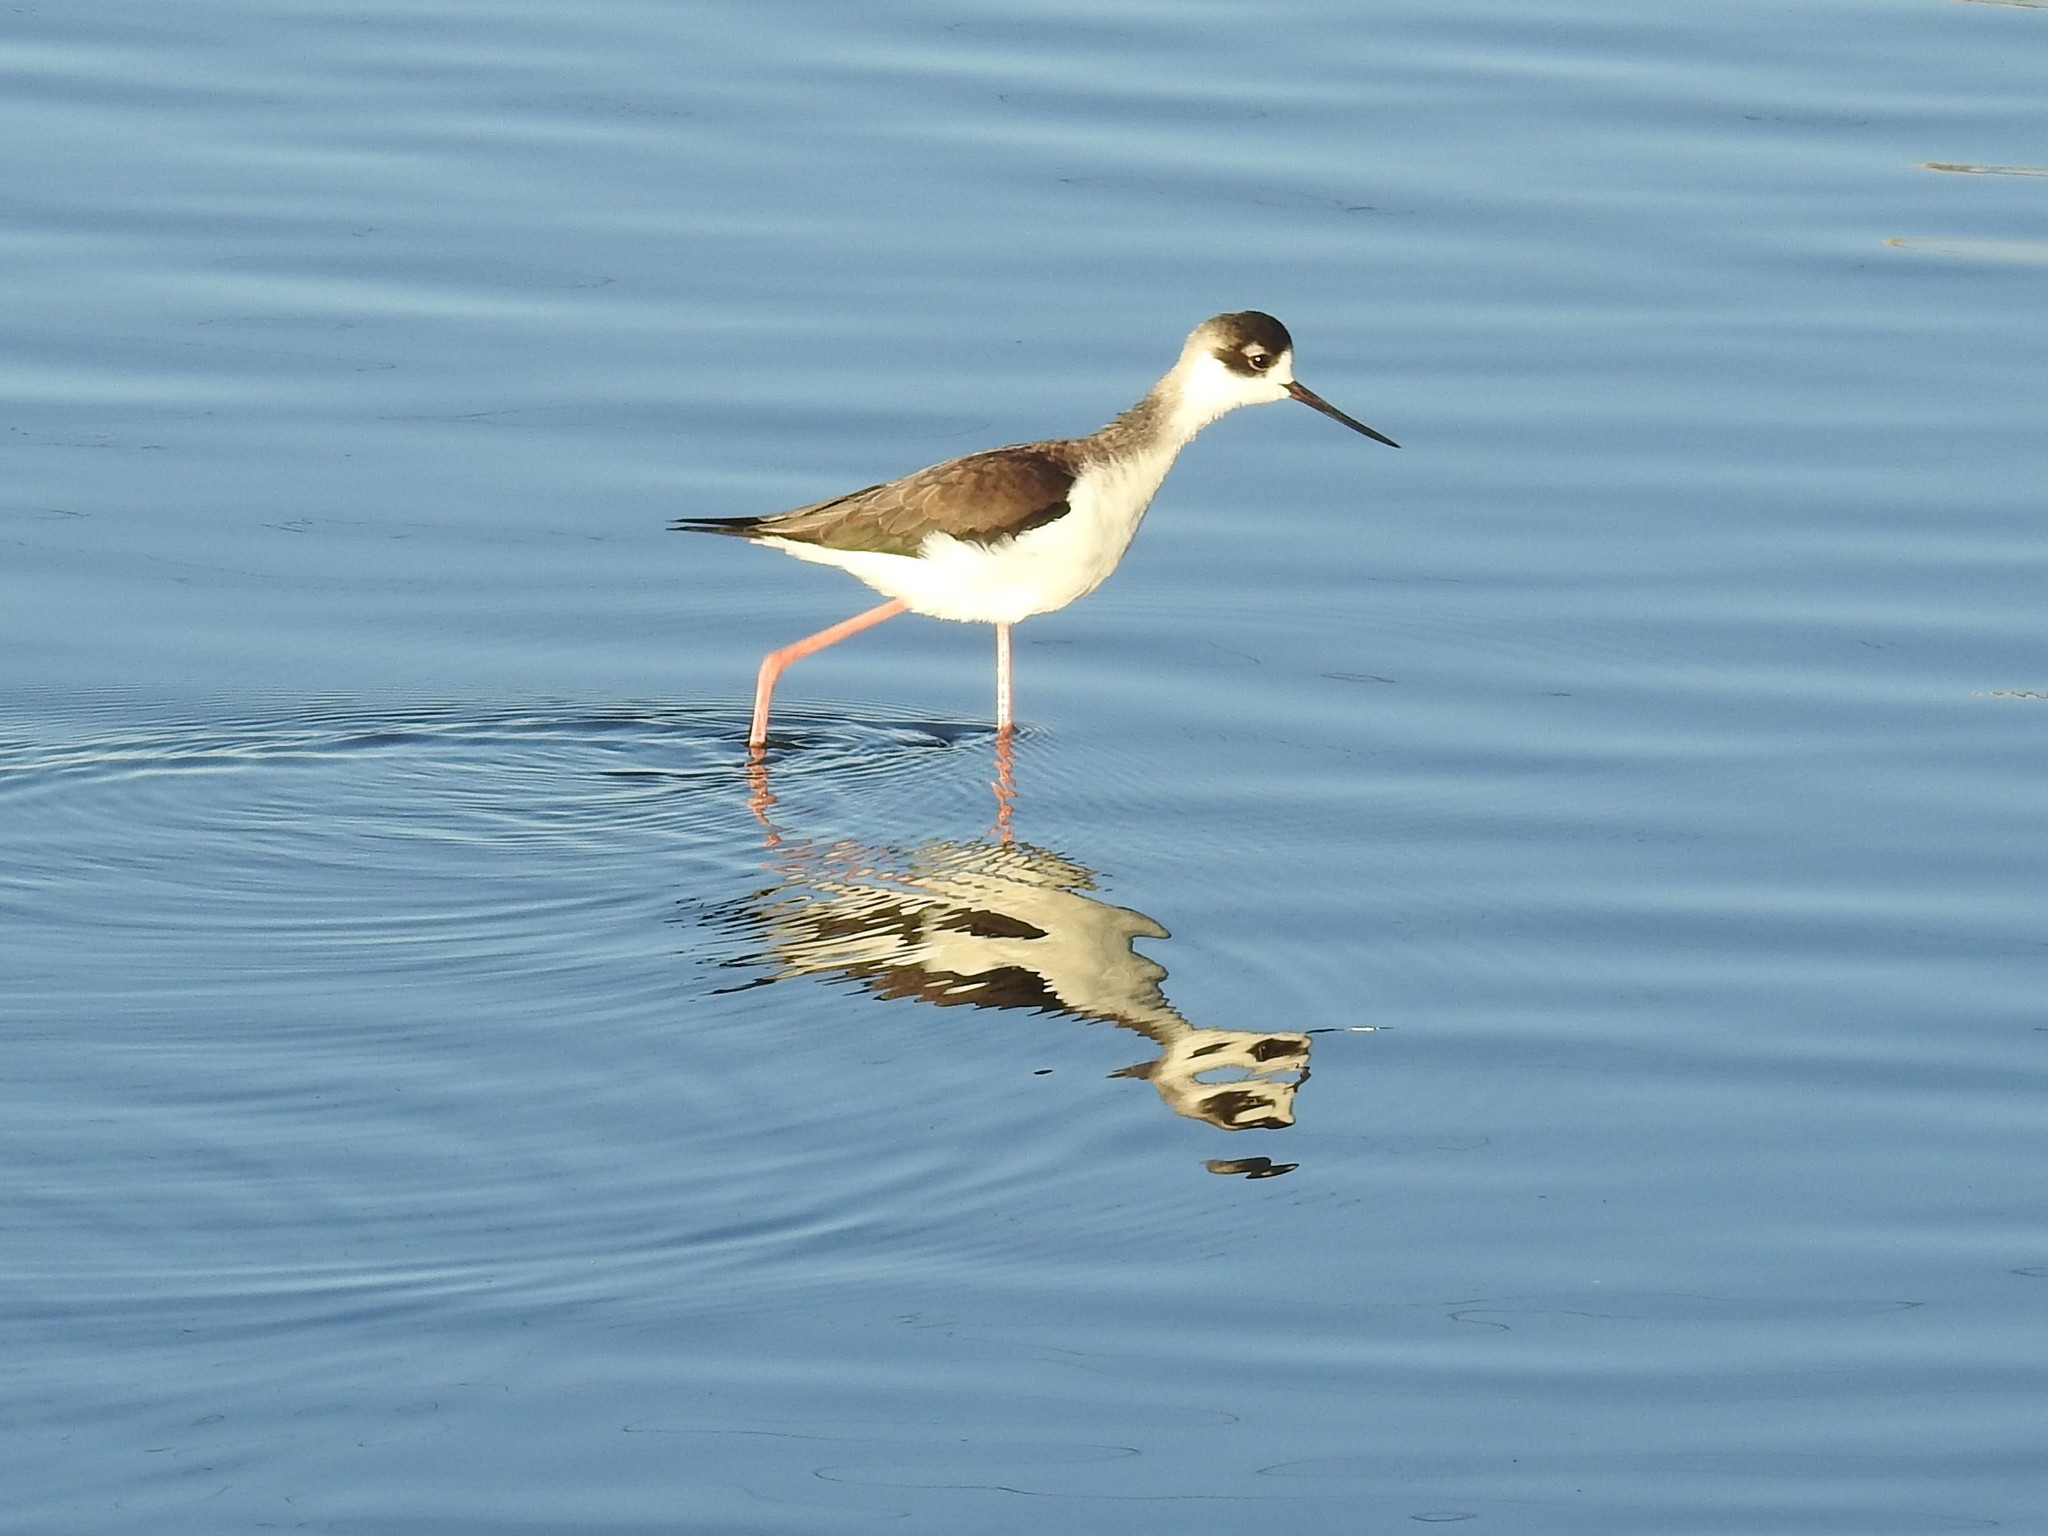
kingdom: Animalia
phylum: Chordata
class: Aves
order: Charadriiformes
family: Recurvirostridae
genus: Himantopus
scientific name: Himantopus mexicanus
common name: Black-necked stilt
